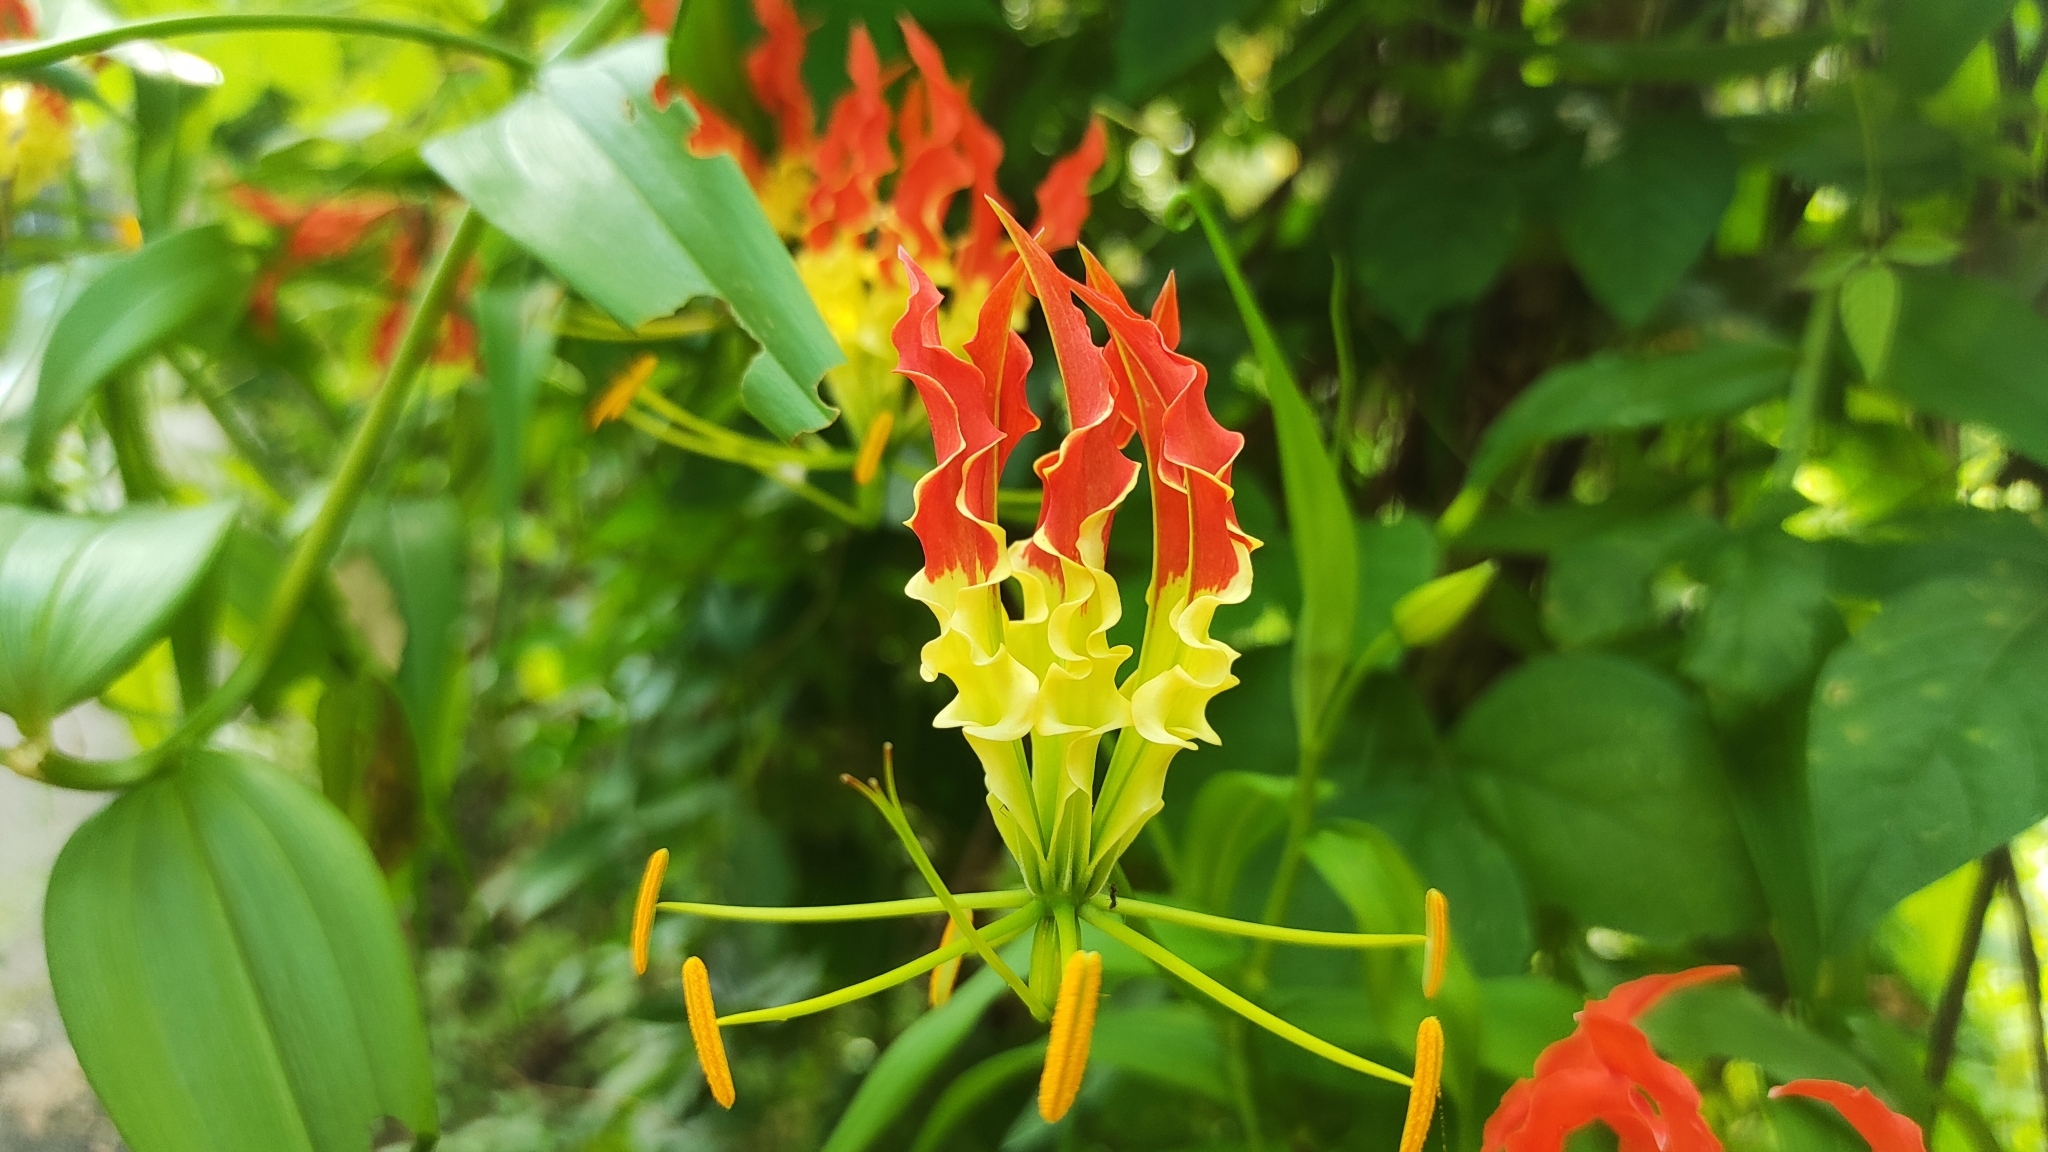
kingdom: Plantae
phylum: Tracheophyta
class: Liliopsida
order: Liliales
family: Colchicaceae
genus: Gloriosa
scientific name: Gloriosa superba
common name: Flame lily
